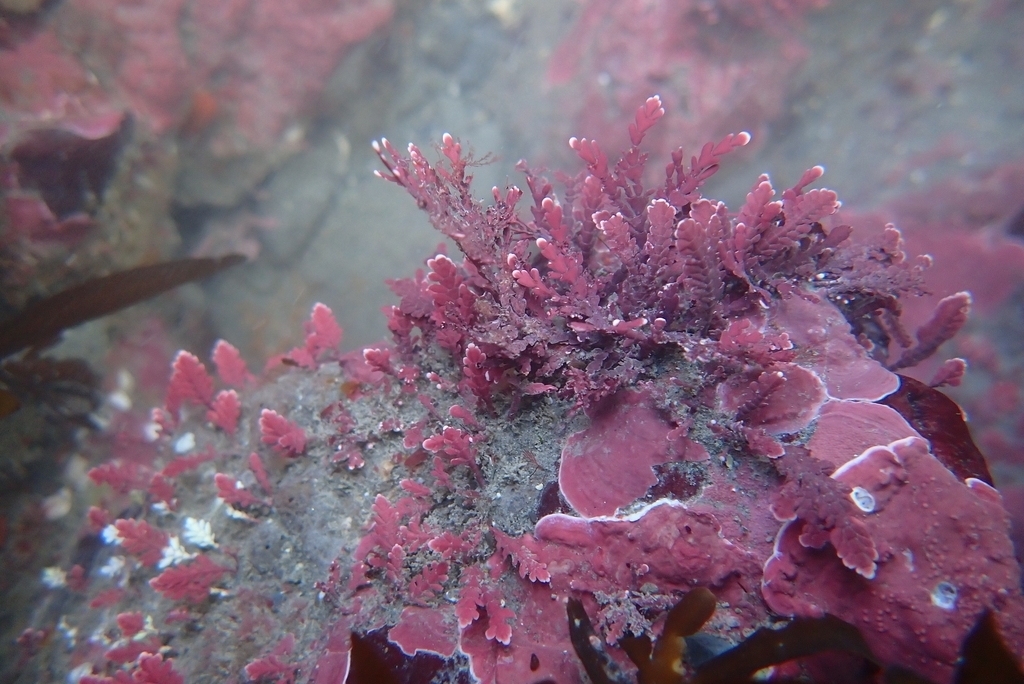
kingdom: Plantae
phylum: Rhodophyta
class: Florideophyceae
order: Corallinales
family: Corallinaceae
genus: Arthrocardia
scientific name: Arthrocardia corymbosa
